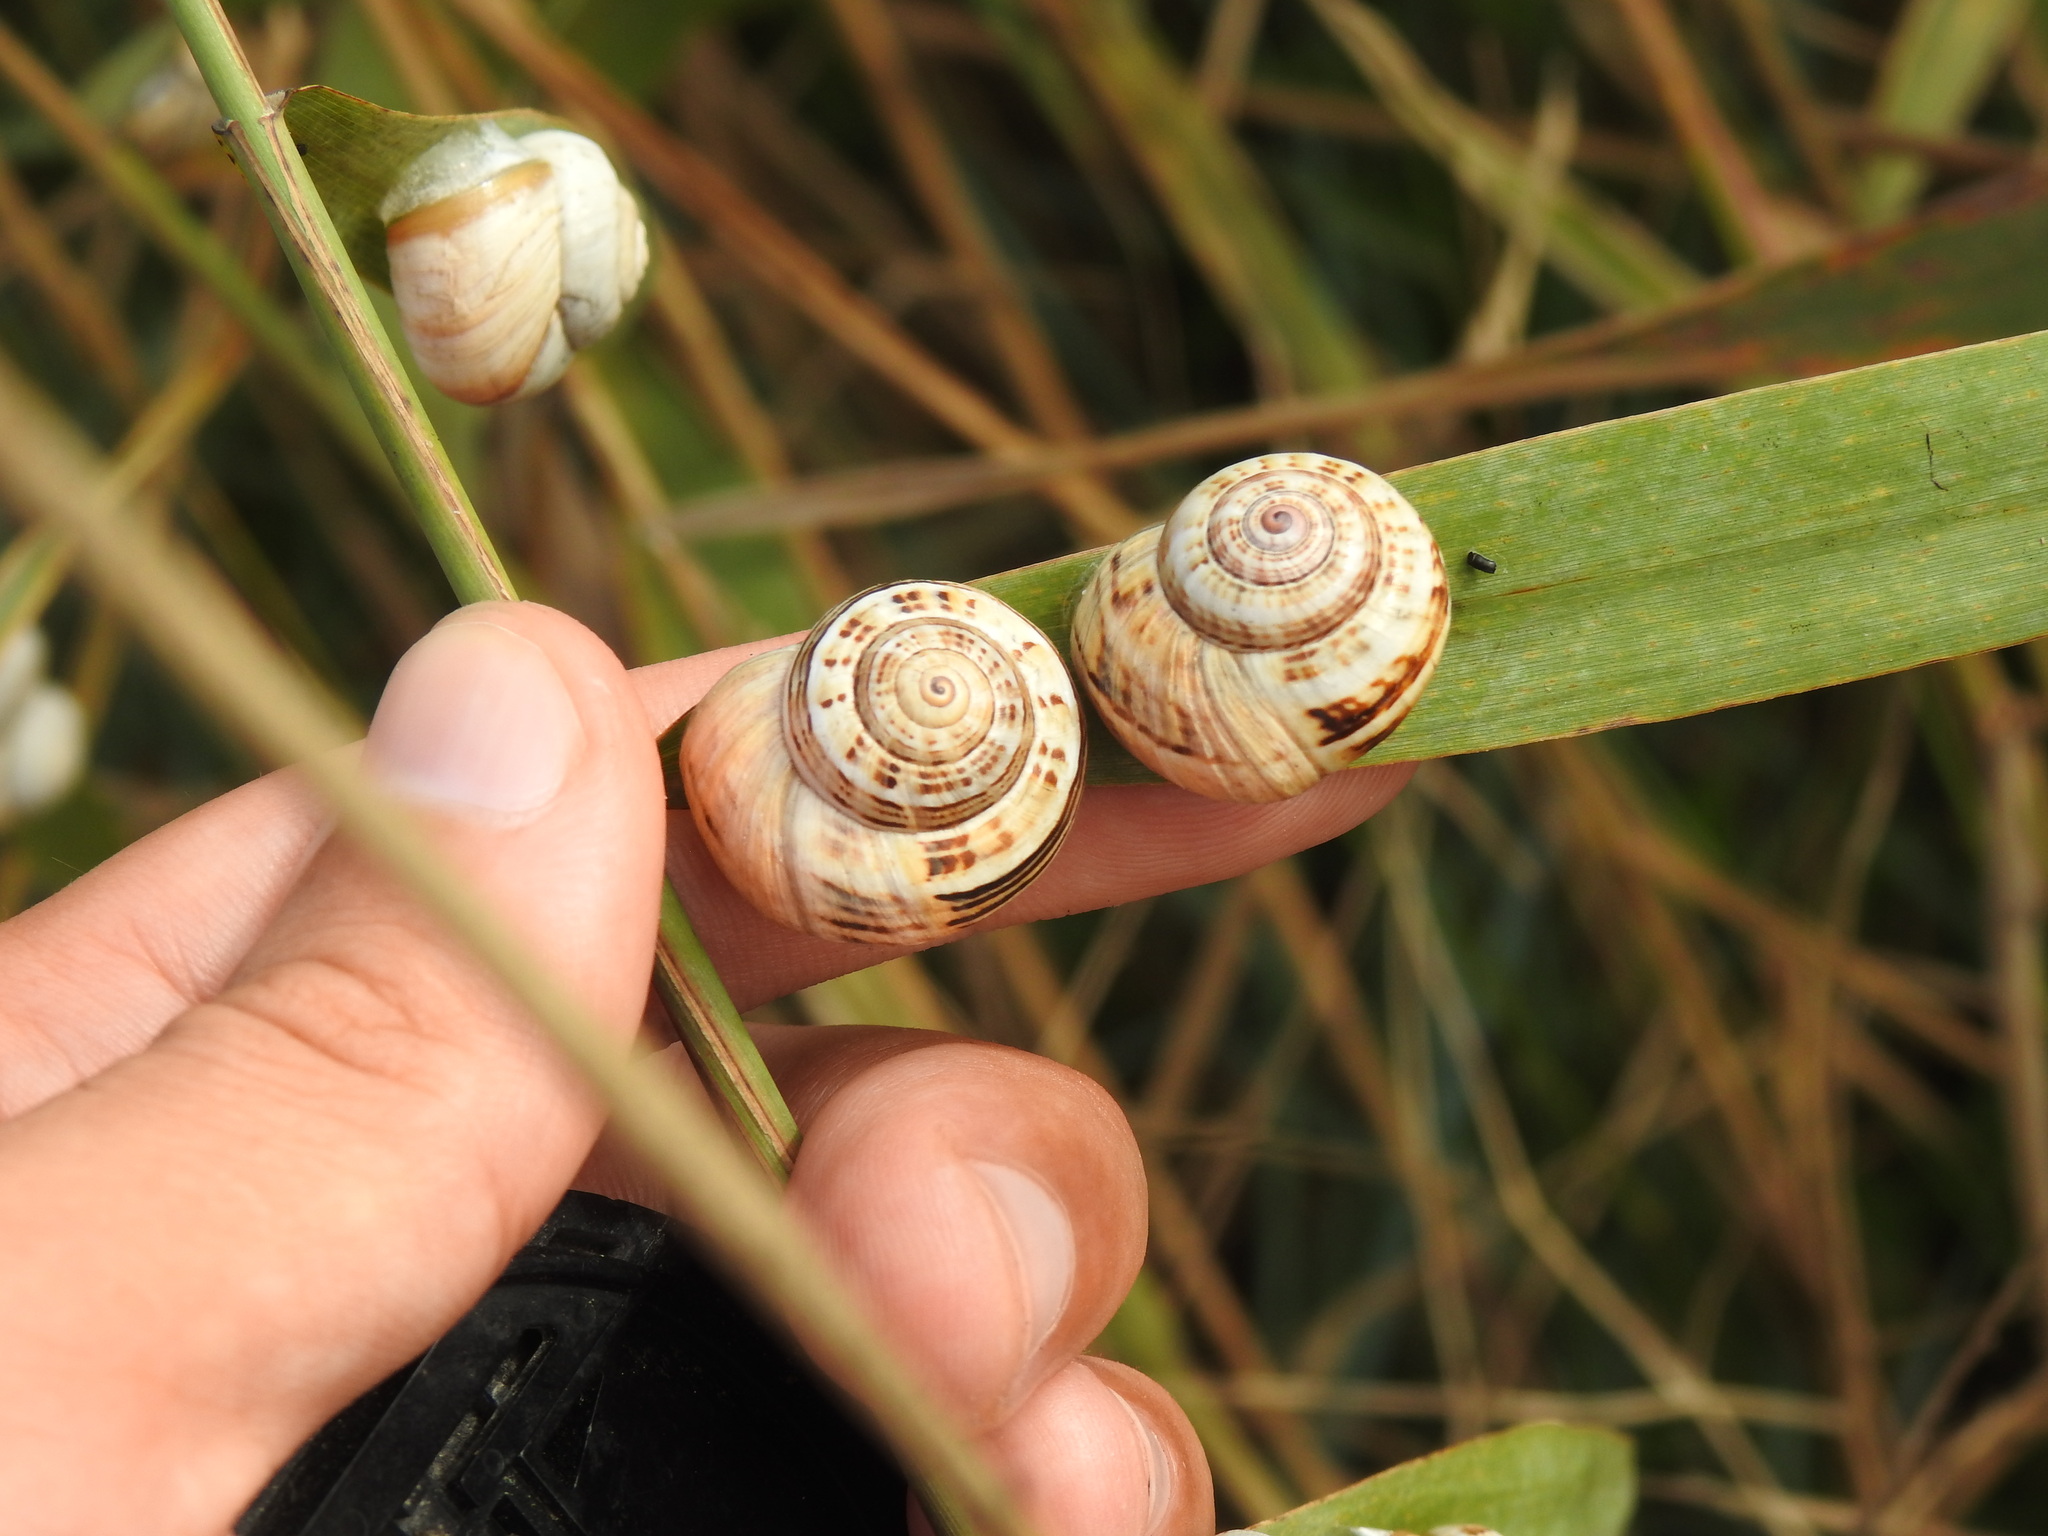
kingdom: Animalia
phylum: Mollusca
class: Gastropoda
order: Stylommatophora
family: Helicidae
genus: Theba
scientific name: Theba pisana
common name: White snail
